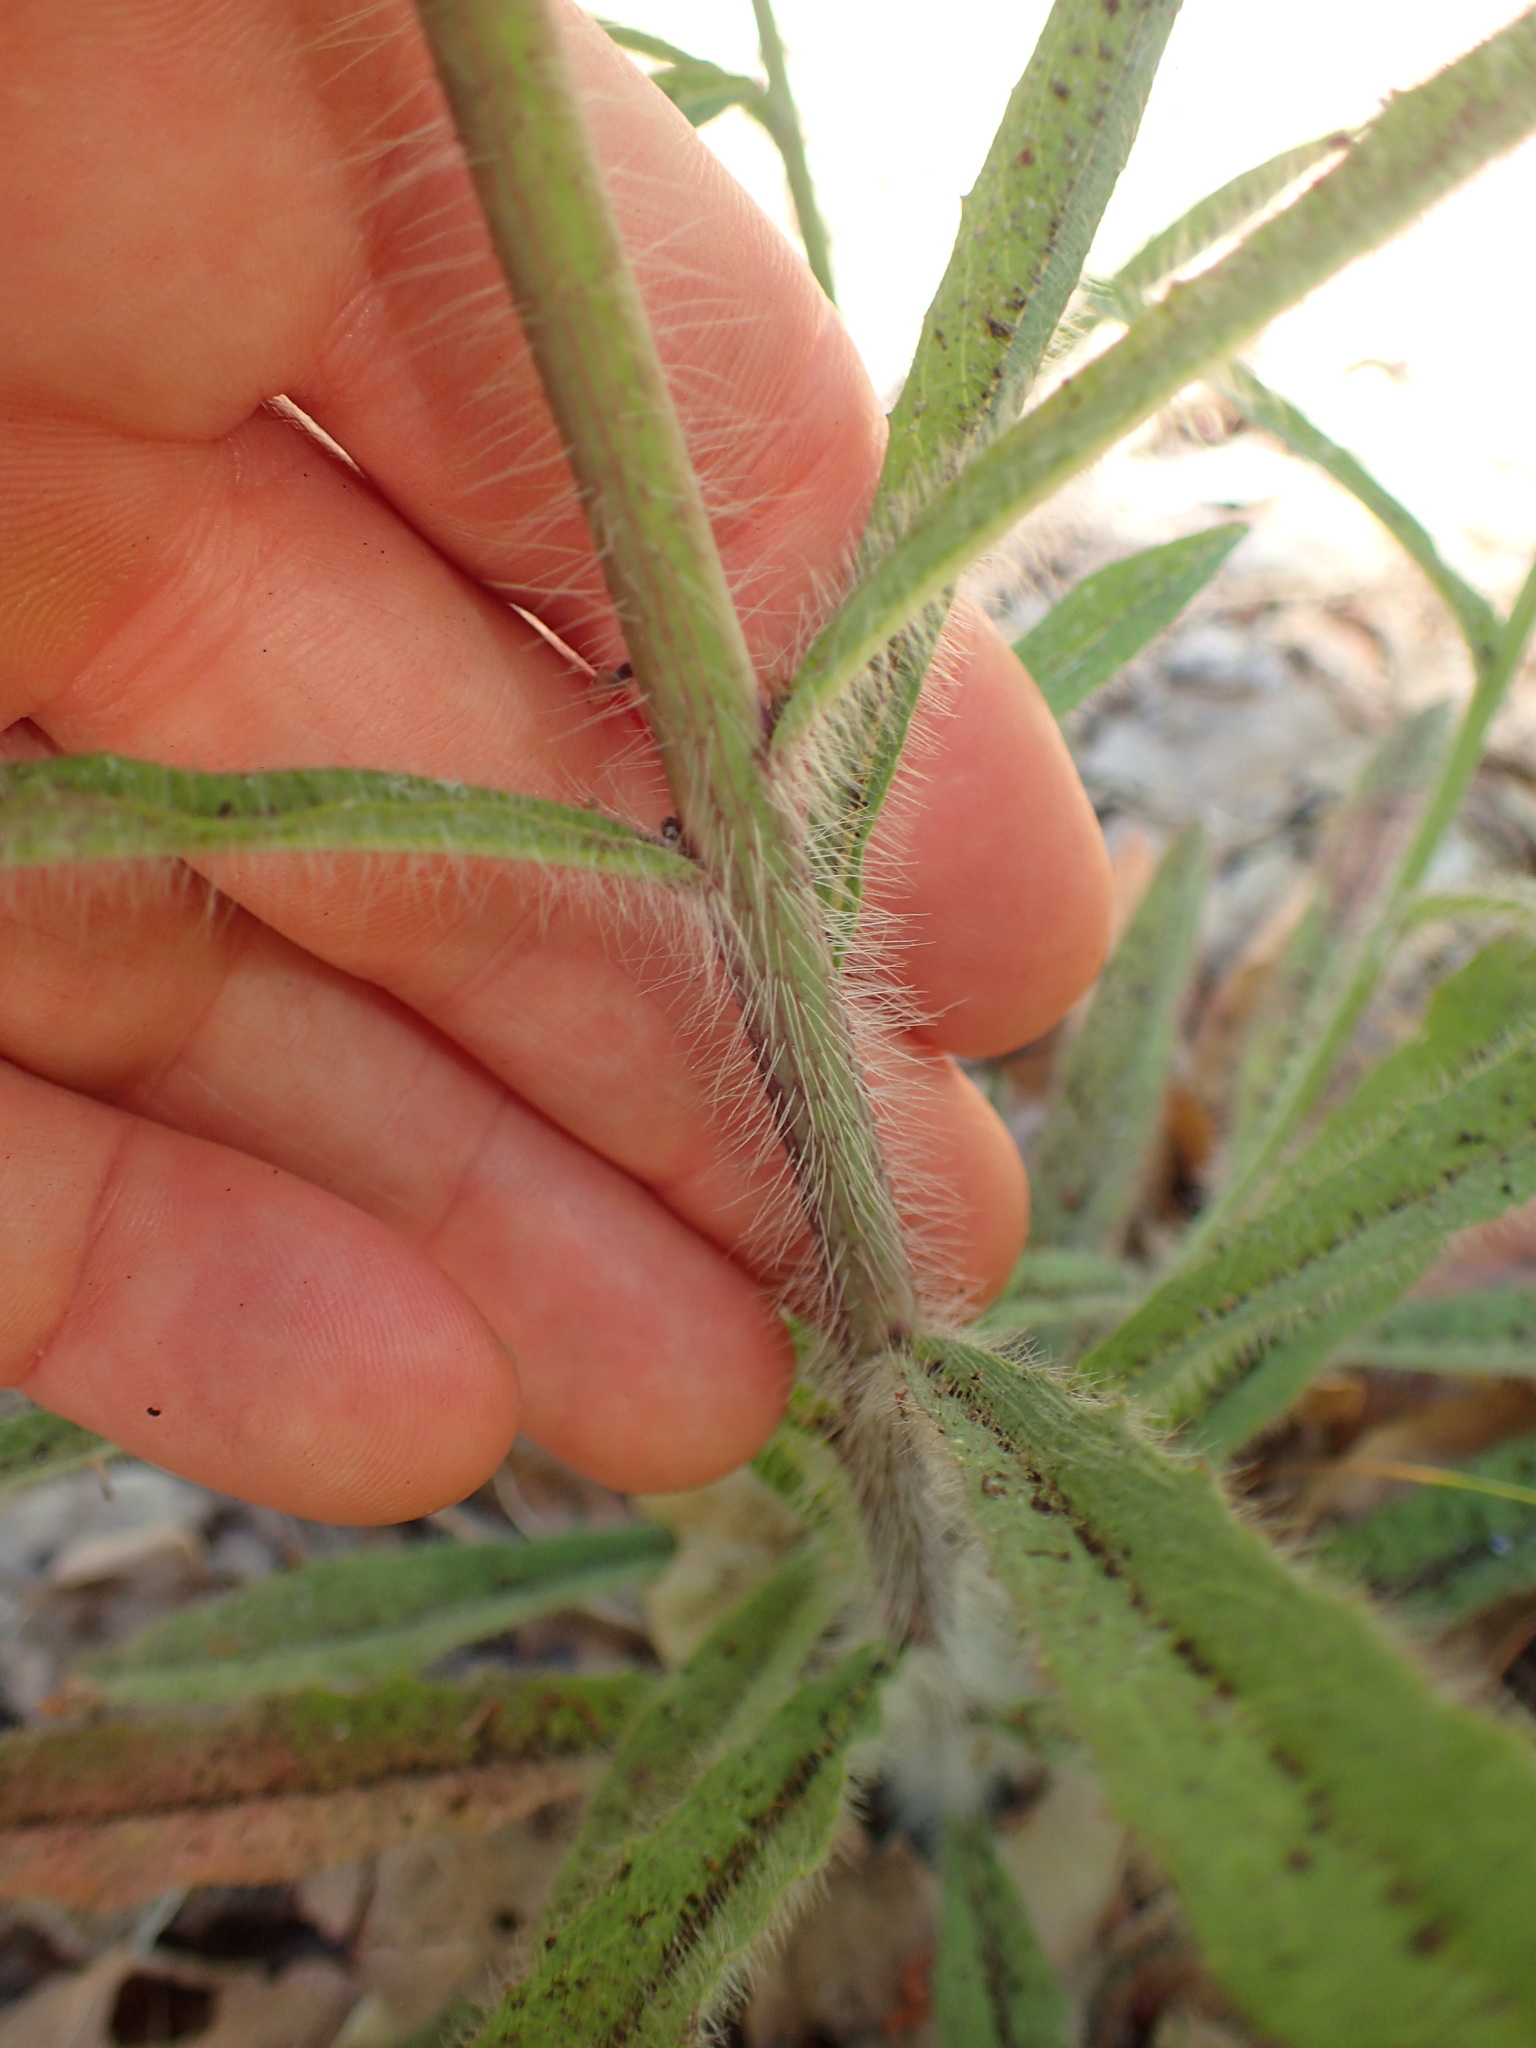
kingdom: Plantae
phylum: Tracheophyta
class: Magnoliopsida
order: Asterales
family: Asteraceae
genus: Hieracium
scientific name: Hieracium albiflorum
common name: White hawkweed
